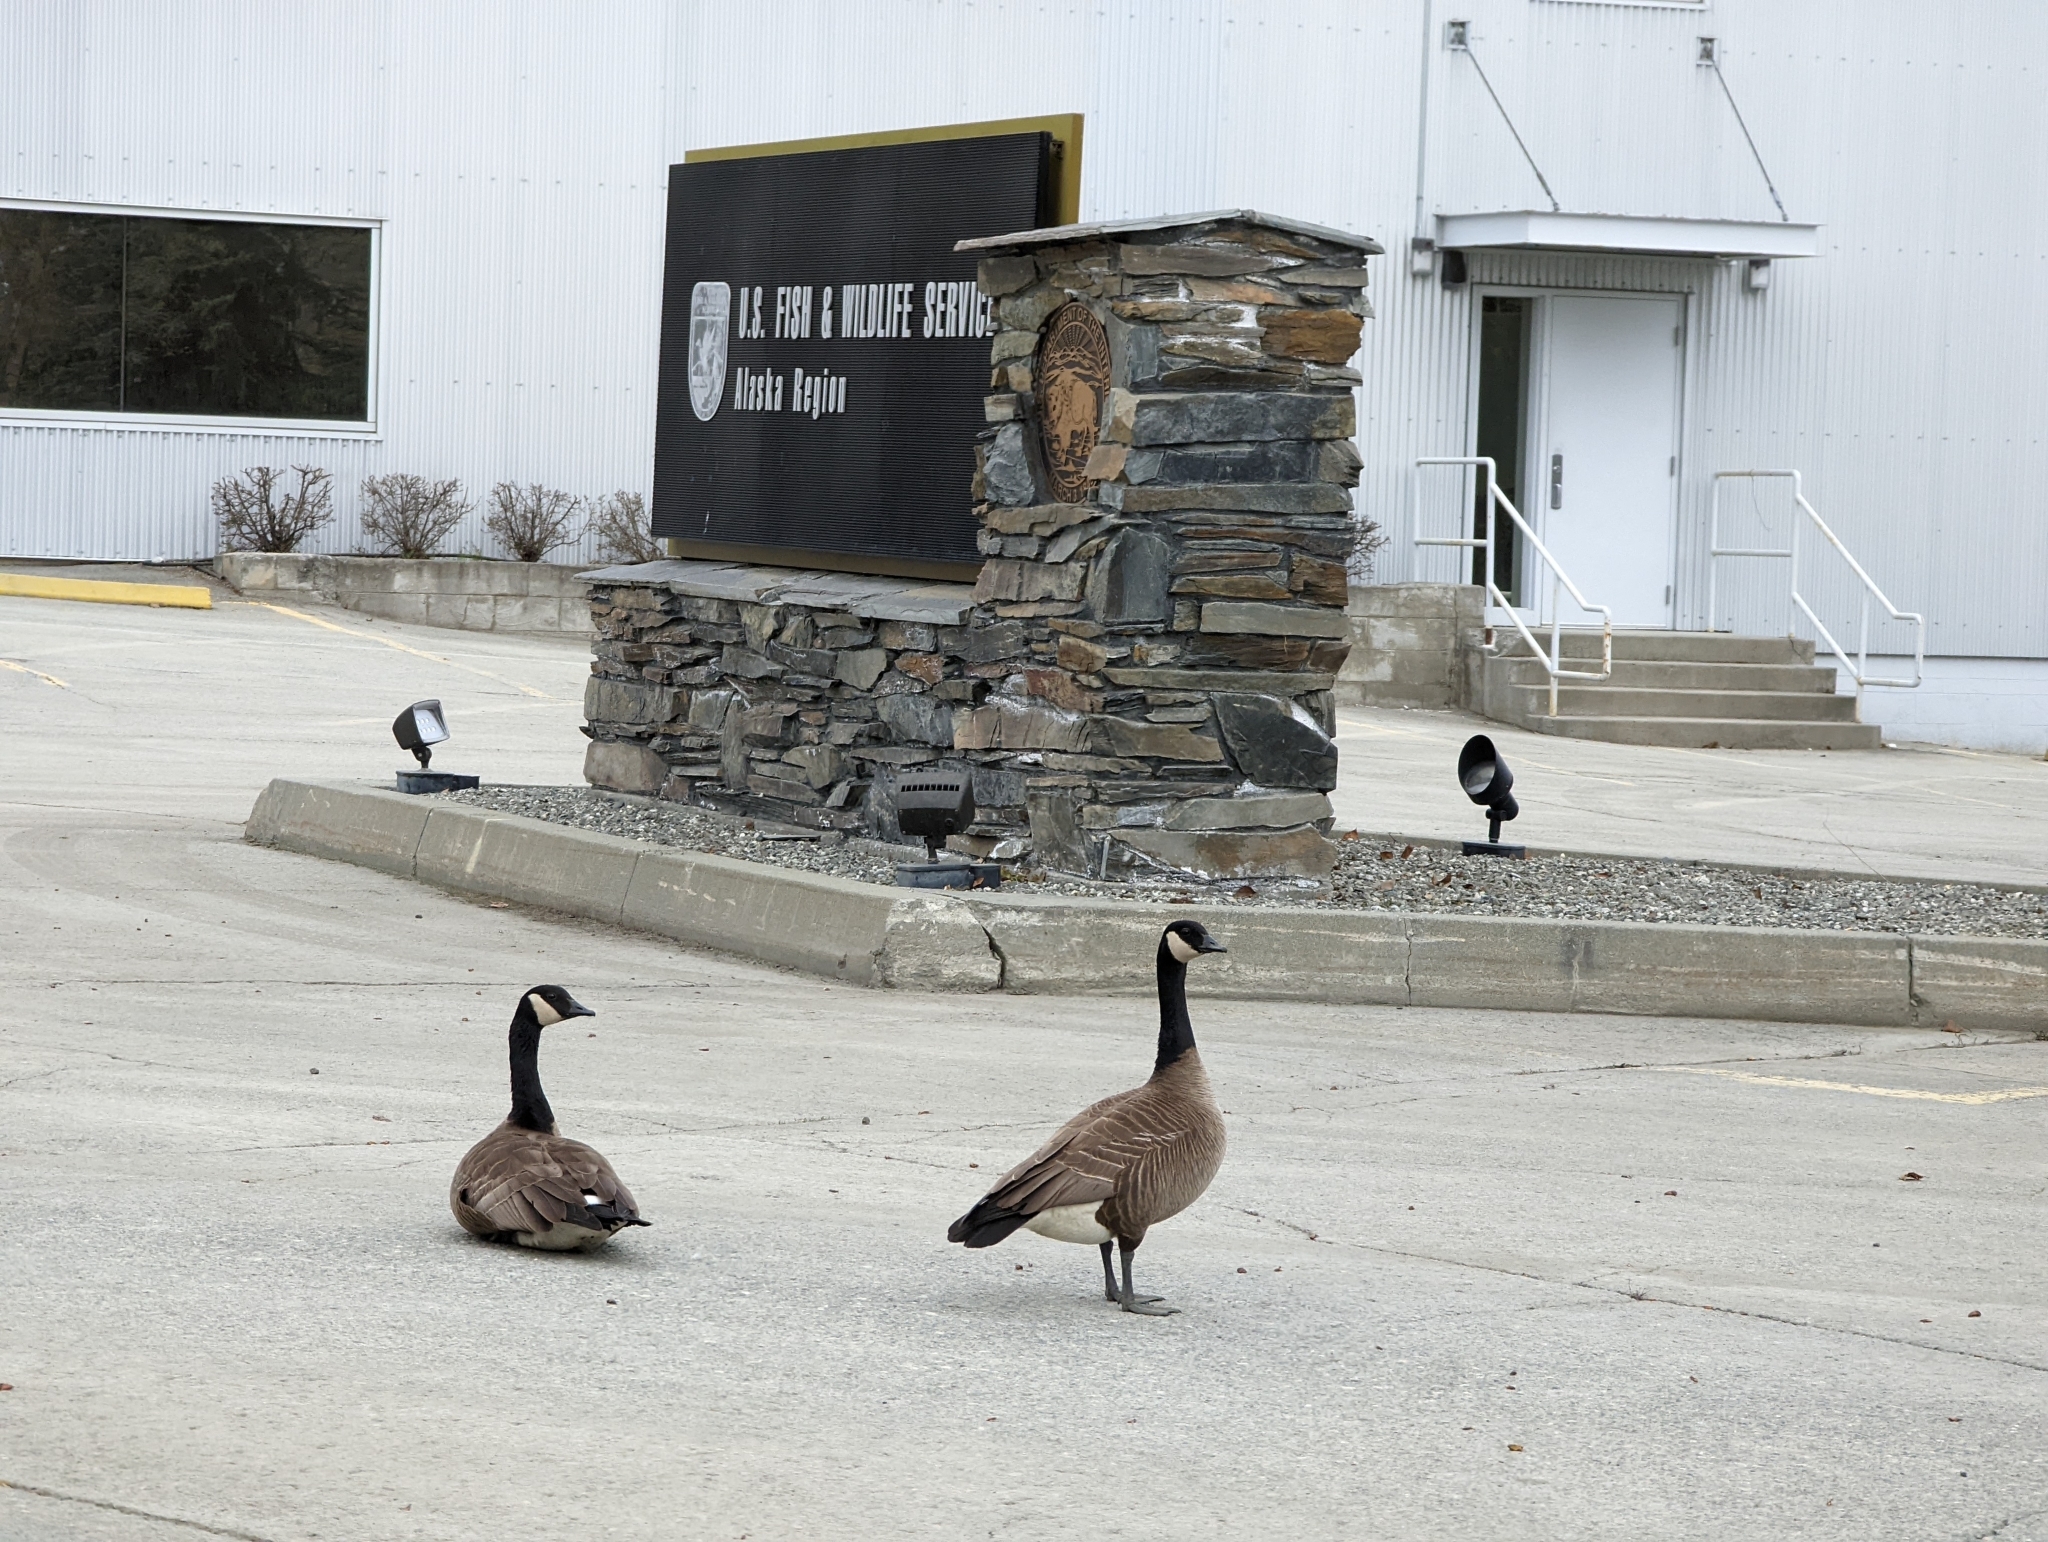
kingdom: Animalia
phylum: Chordata
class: Aves
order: Anseriformes
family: Anatidae
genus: Branta
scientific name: Branta canadensis
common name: Canada goose
